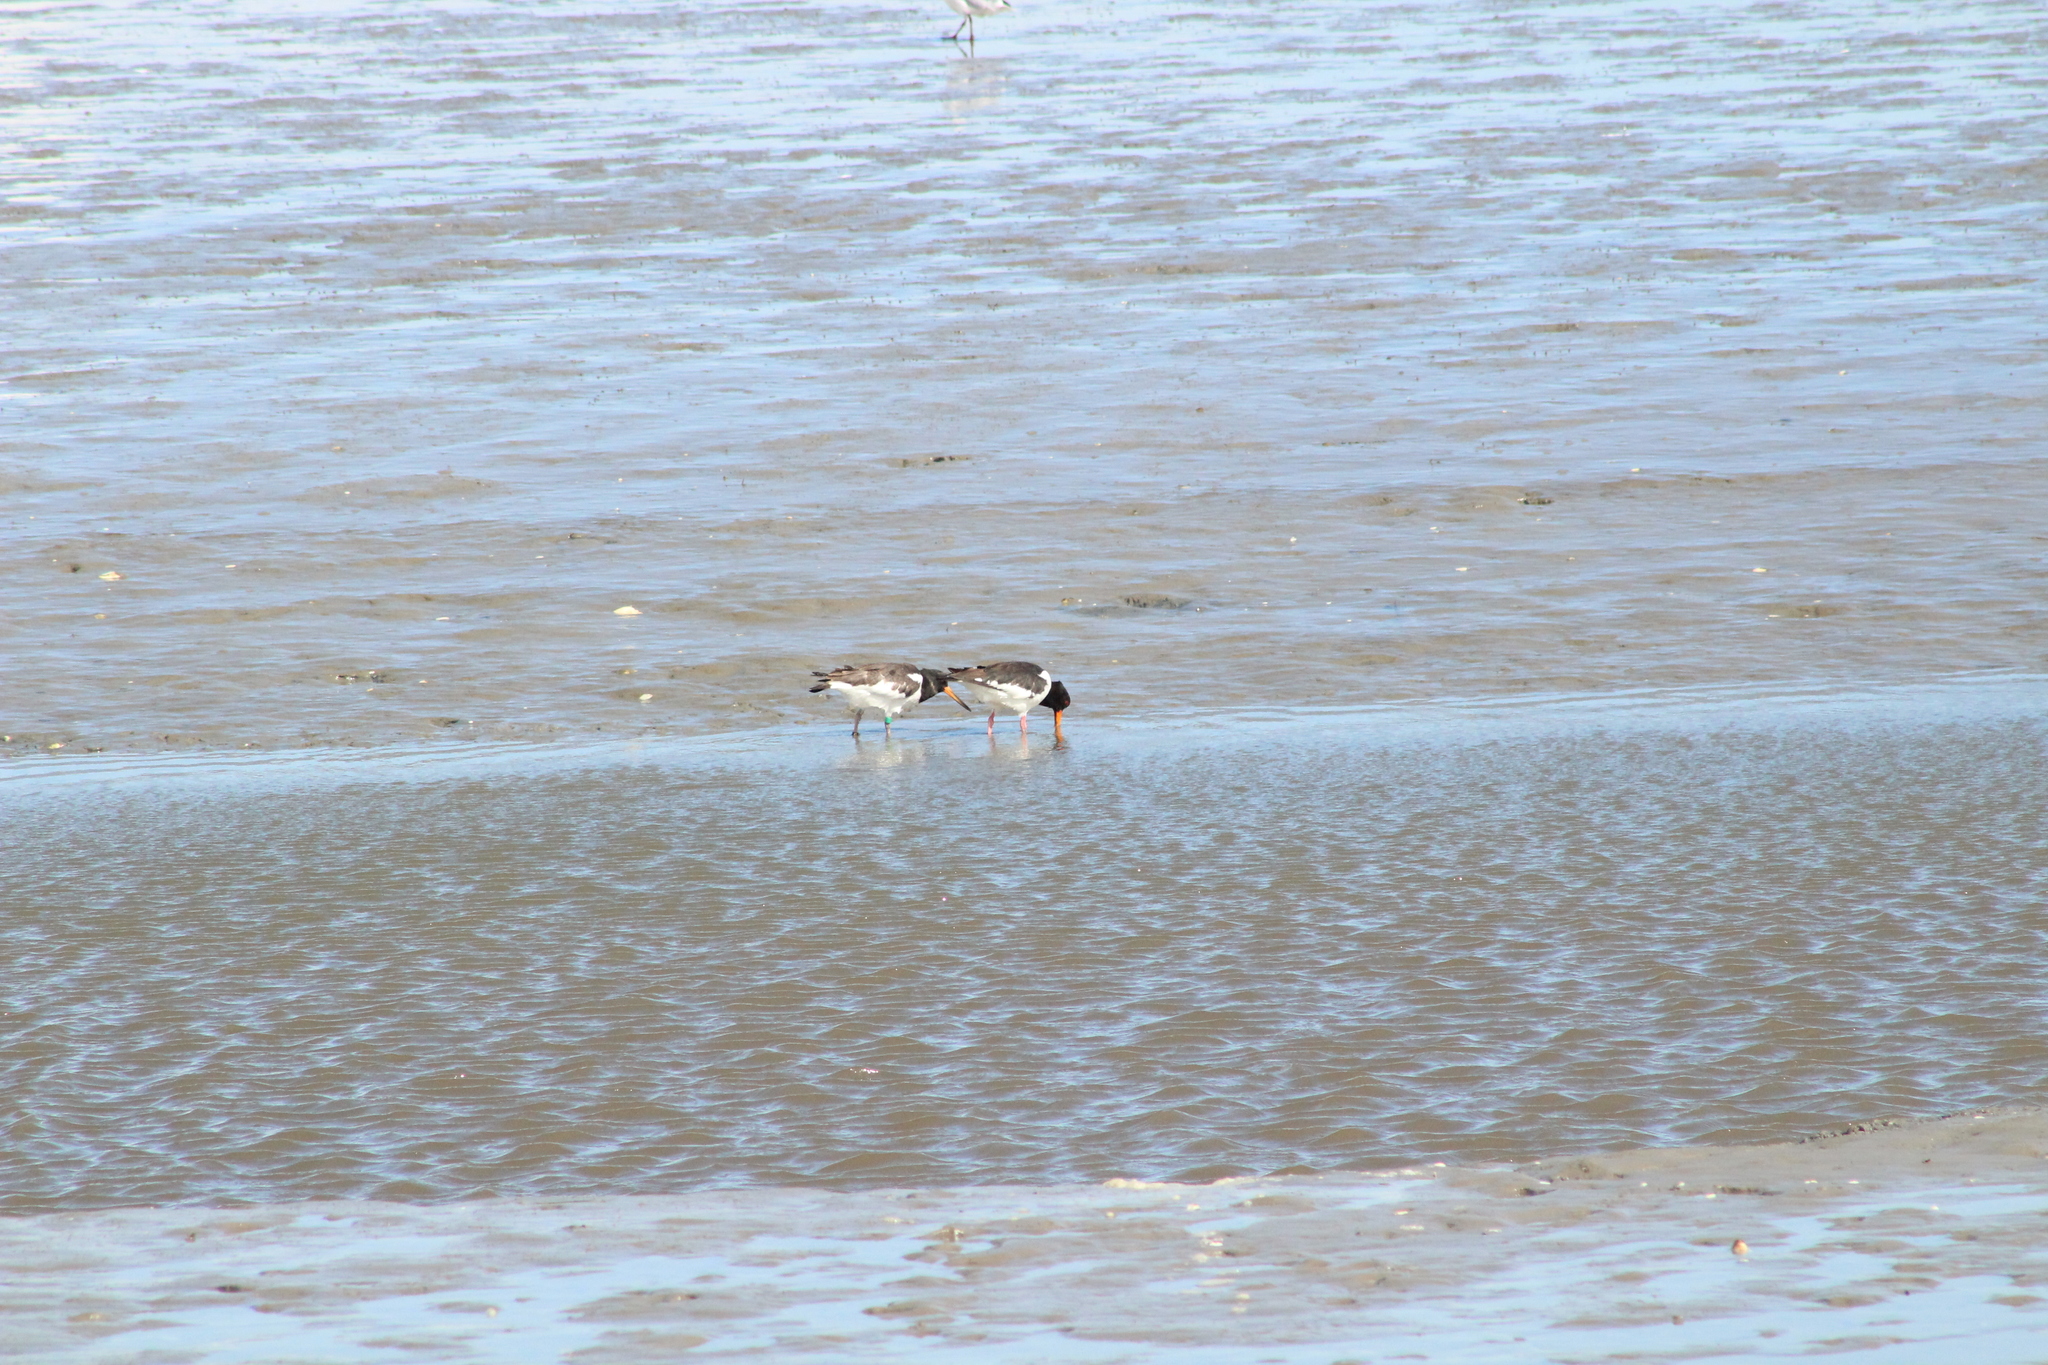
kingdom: Animalia
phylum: Chordata
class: Aves
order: Charadriiformes
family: Haematopodidae
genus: Haematopus
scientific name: Haematopus ostralegus
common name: Eurasian oystercatcher
